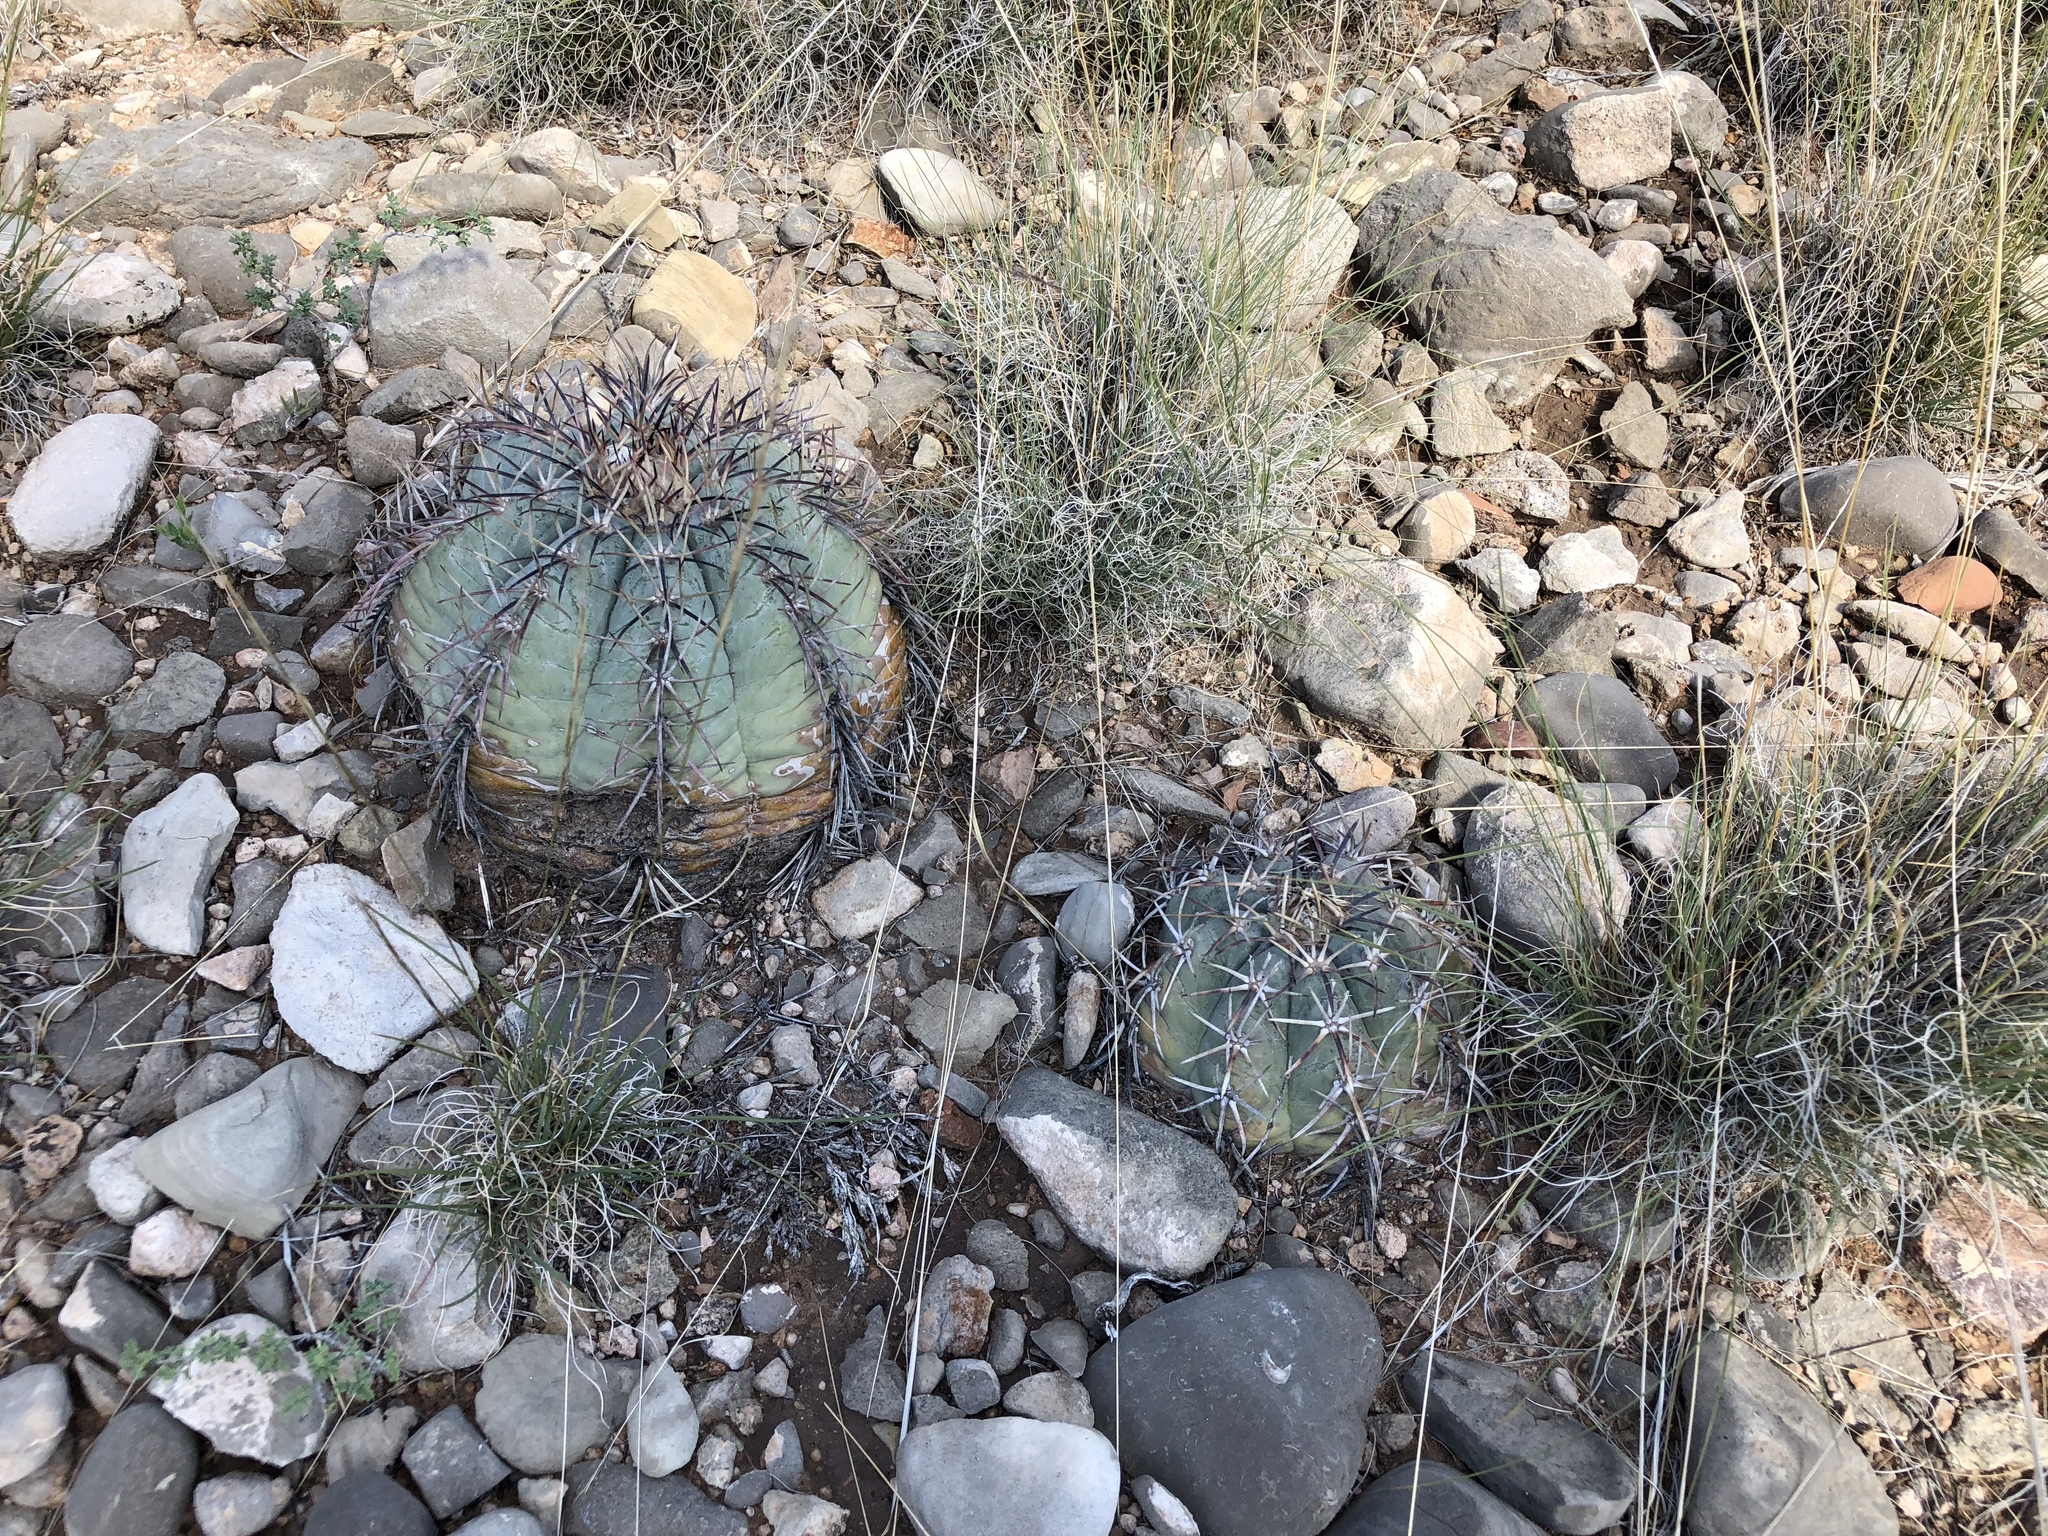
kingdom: Plantae
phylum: Tracheophyta
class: Magnoliopsida
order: Caryophyllales
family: Cactaceae
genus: Echinocactus
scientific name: Echinocactus horizonthalonius
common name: Devilshead
